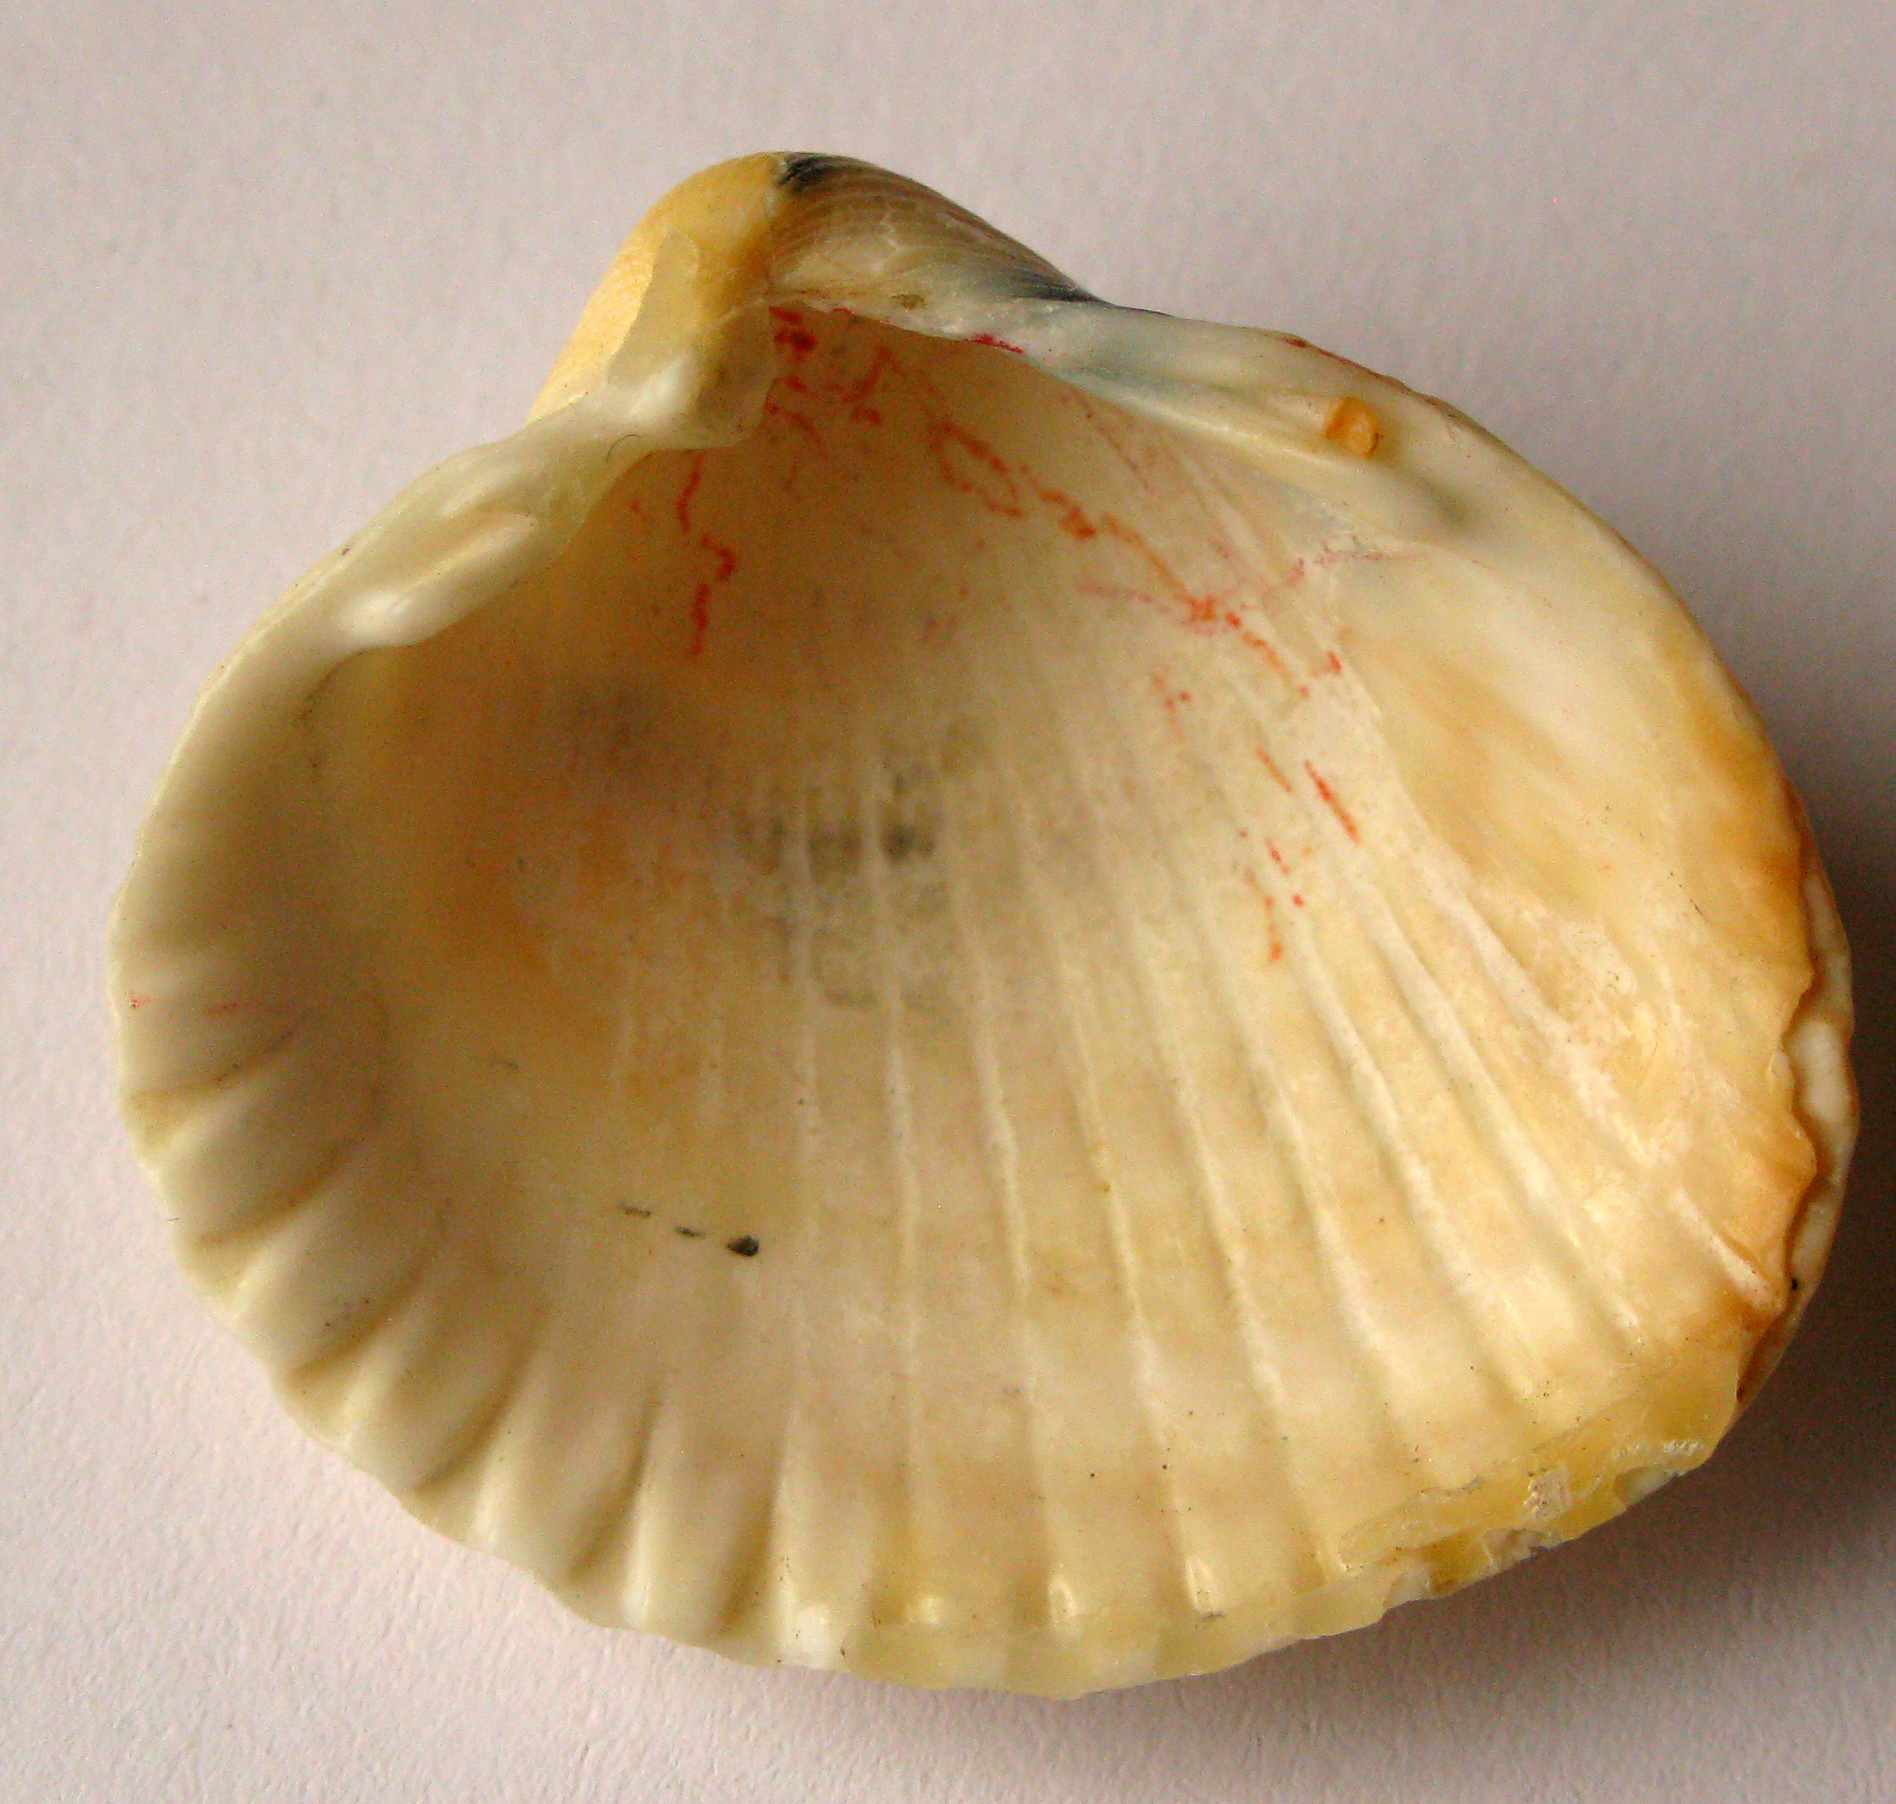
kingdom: Animalia
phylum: Mollusca
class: Bivalvia
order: Cardiida
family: Cardiidae
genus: Cerastoderma
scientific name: Cerastoderma glaucum
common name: Lagoon cockle
